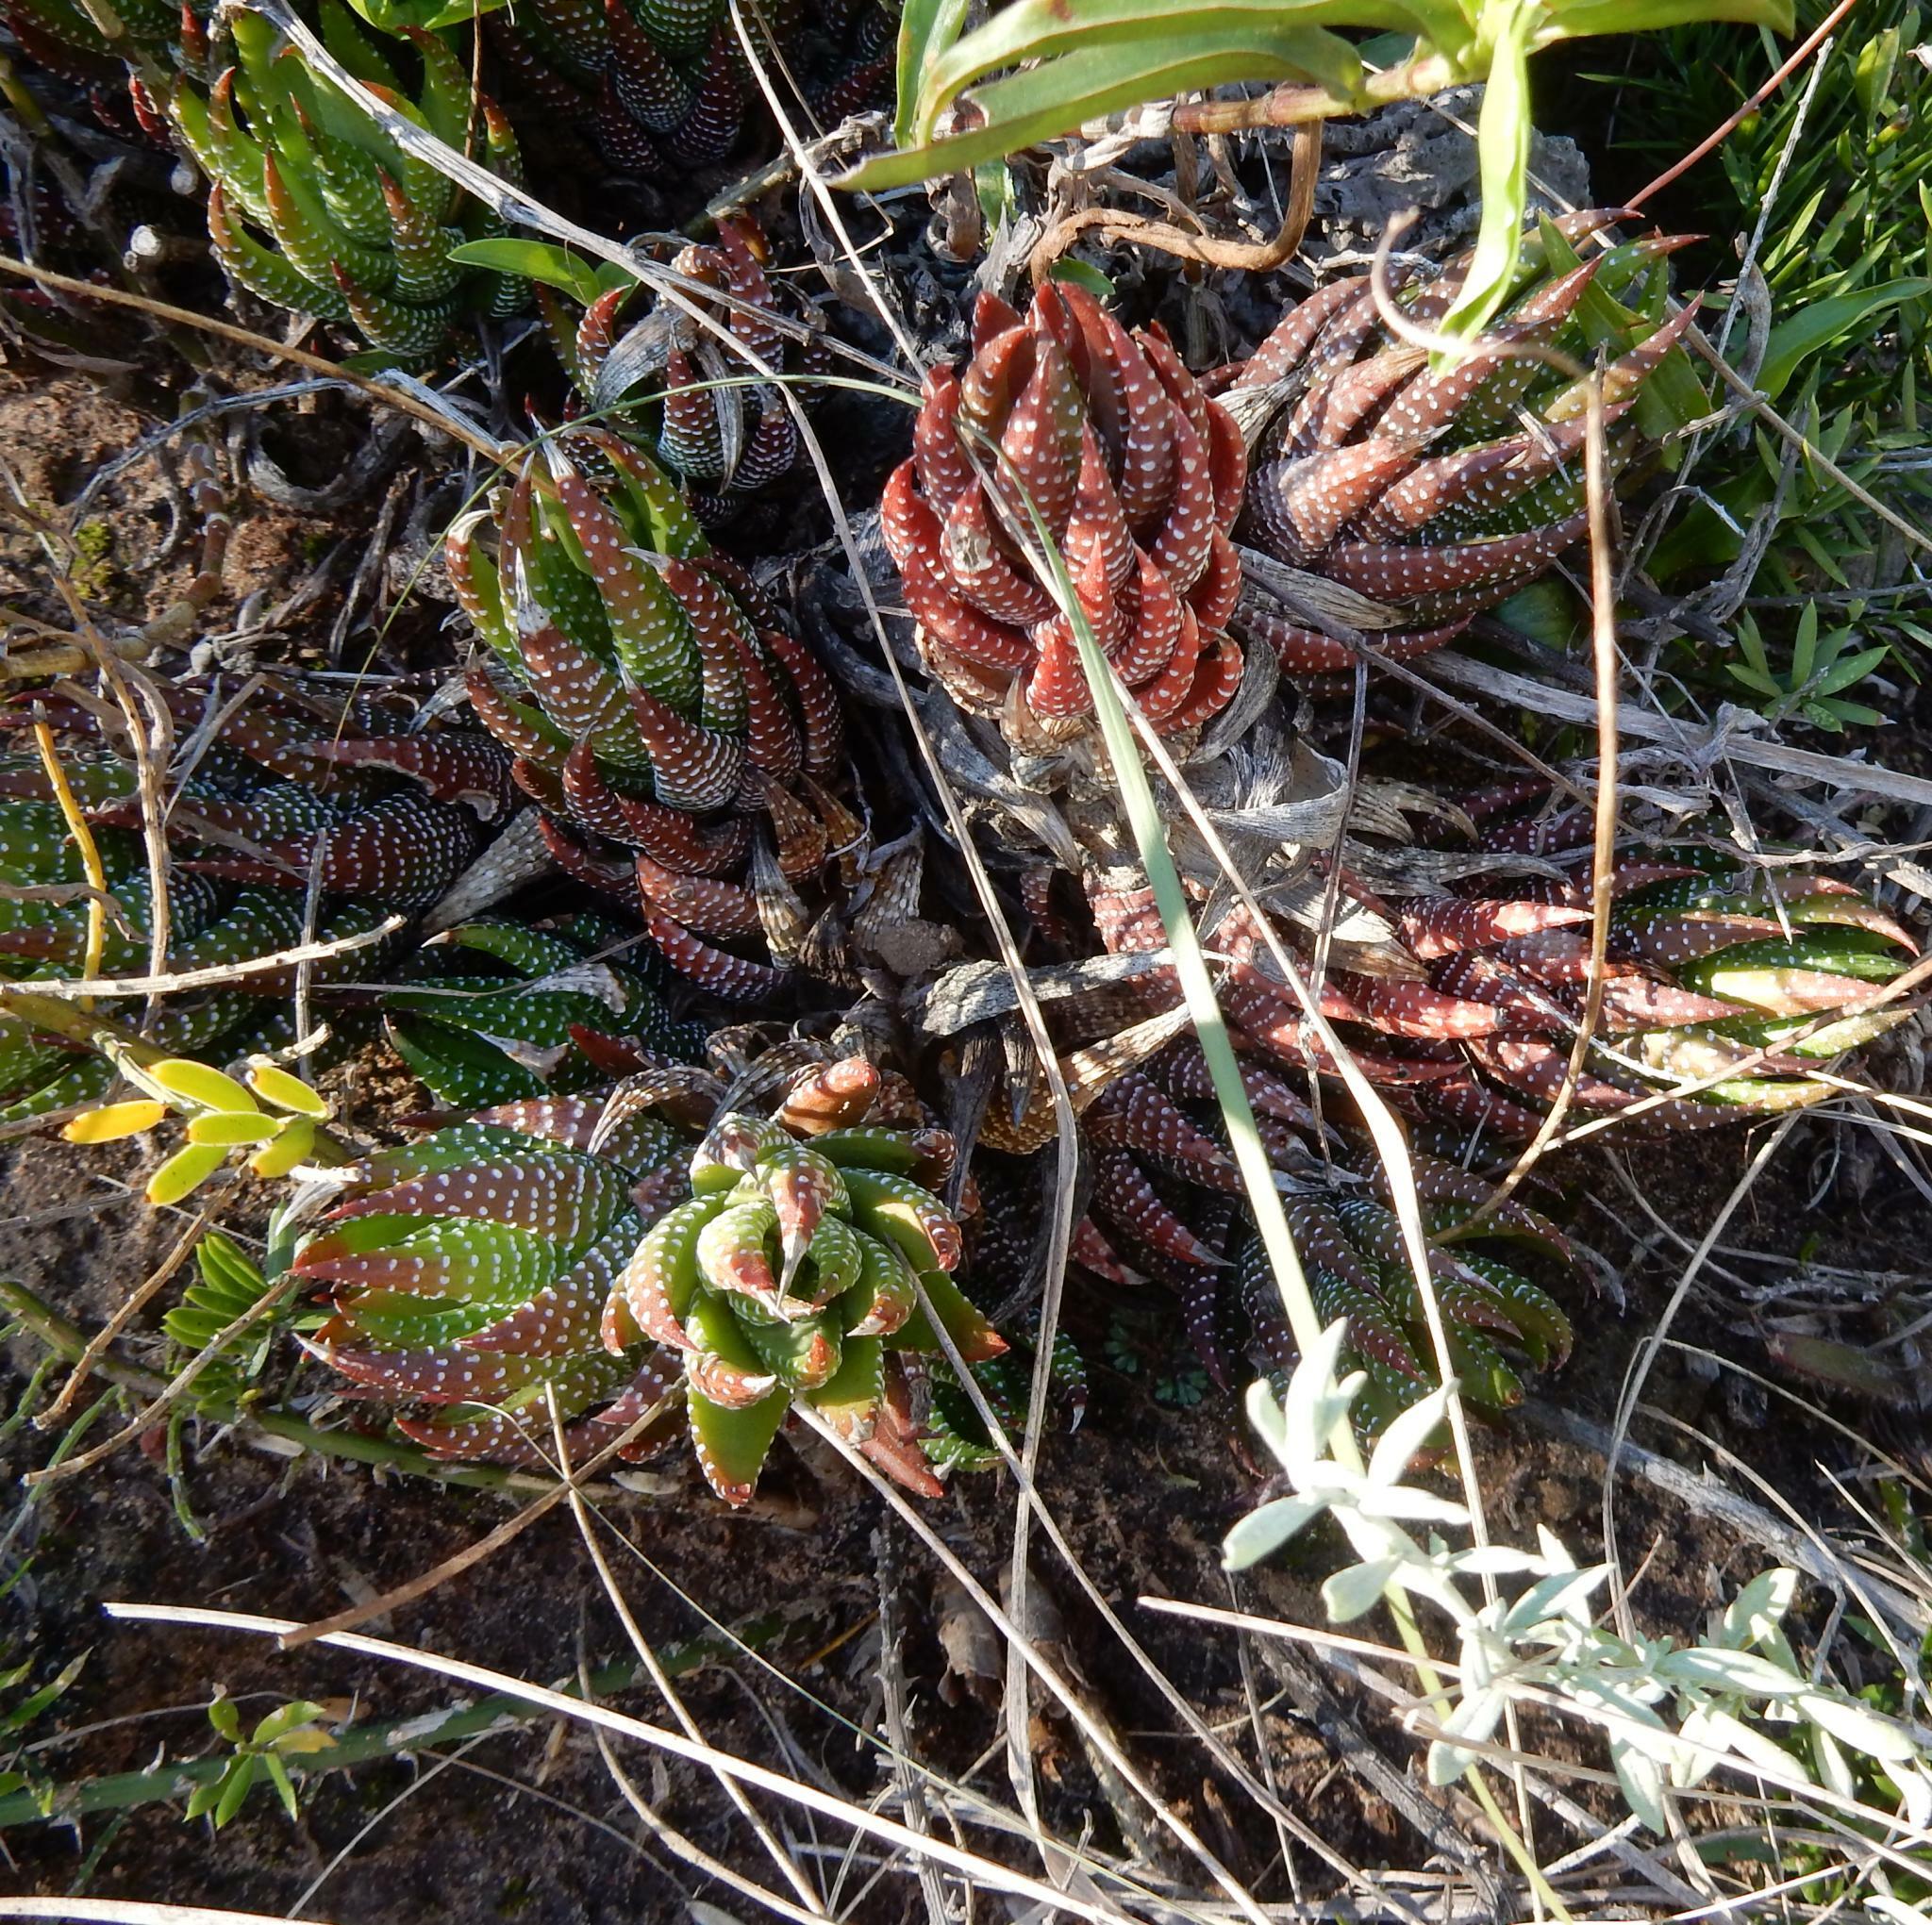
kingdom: Plantae
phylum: Tracheophyta
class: Liliopsida
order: Asparagales
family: Asphodelaceae
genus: Haworthiopsis
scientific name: Haworthiopsis coarctata
